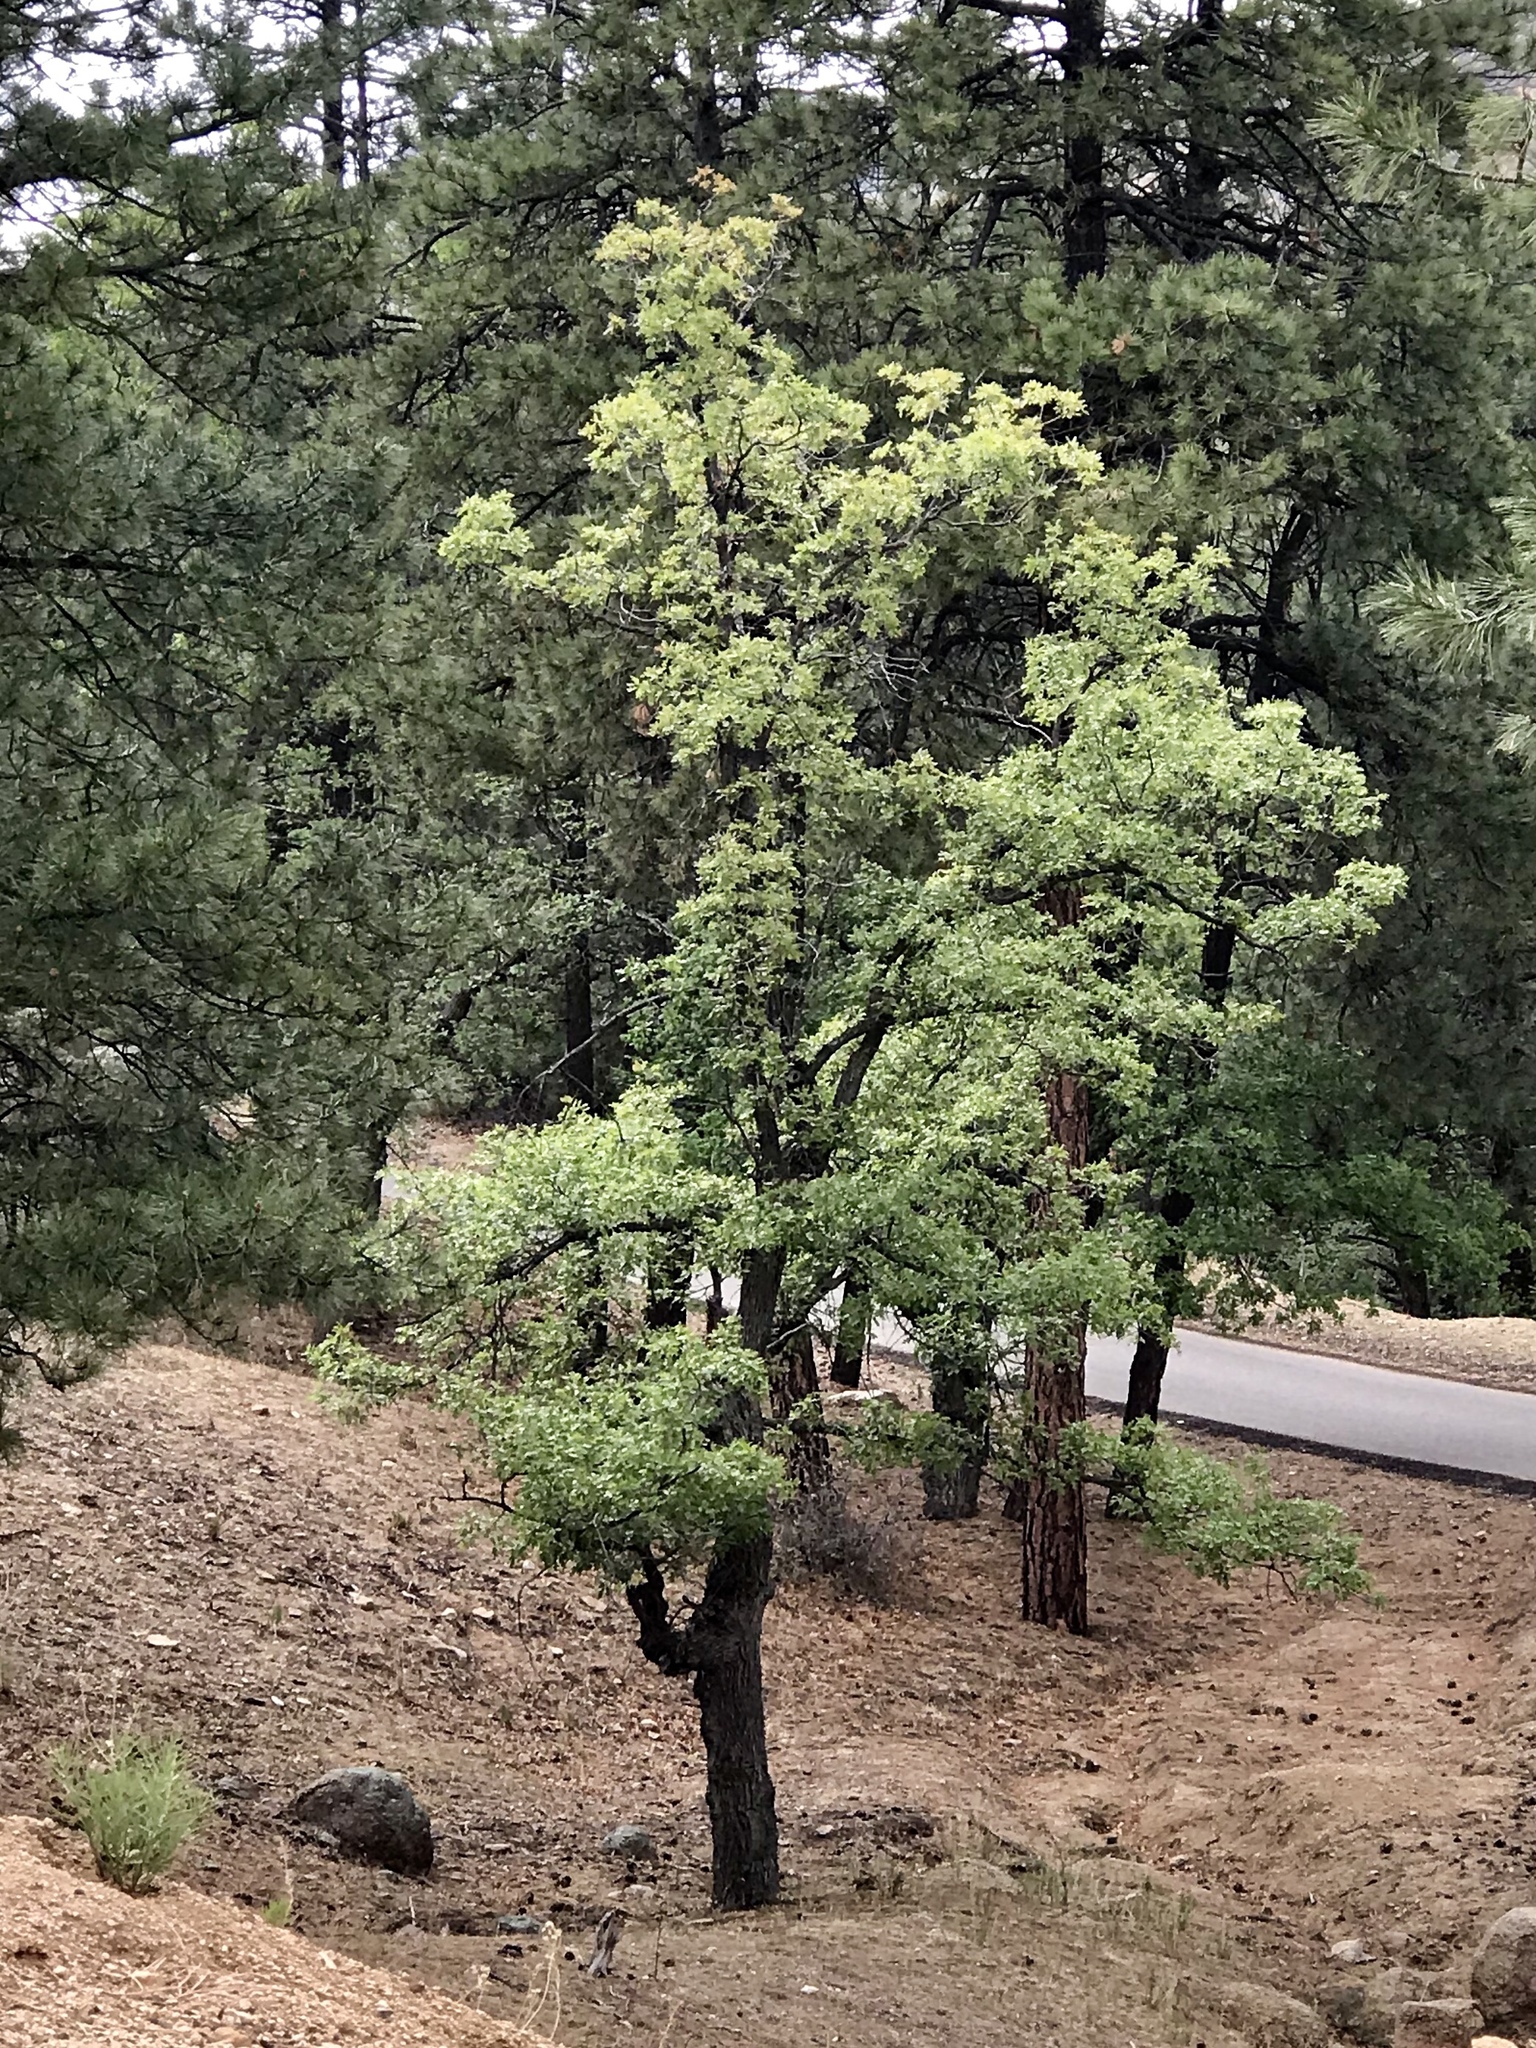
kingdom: Plantae
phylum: Tracheophyta
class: Magnoliopsida
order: Fagales
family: Fagaceae
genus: Quercus
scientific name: Quercus gambelii
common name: Gambel oak
